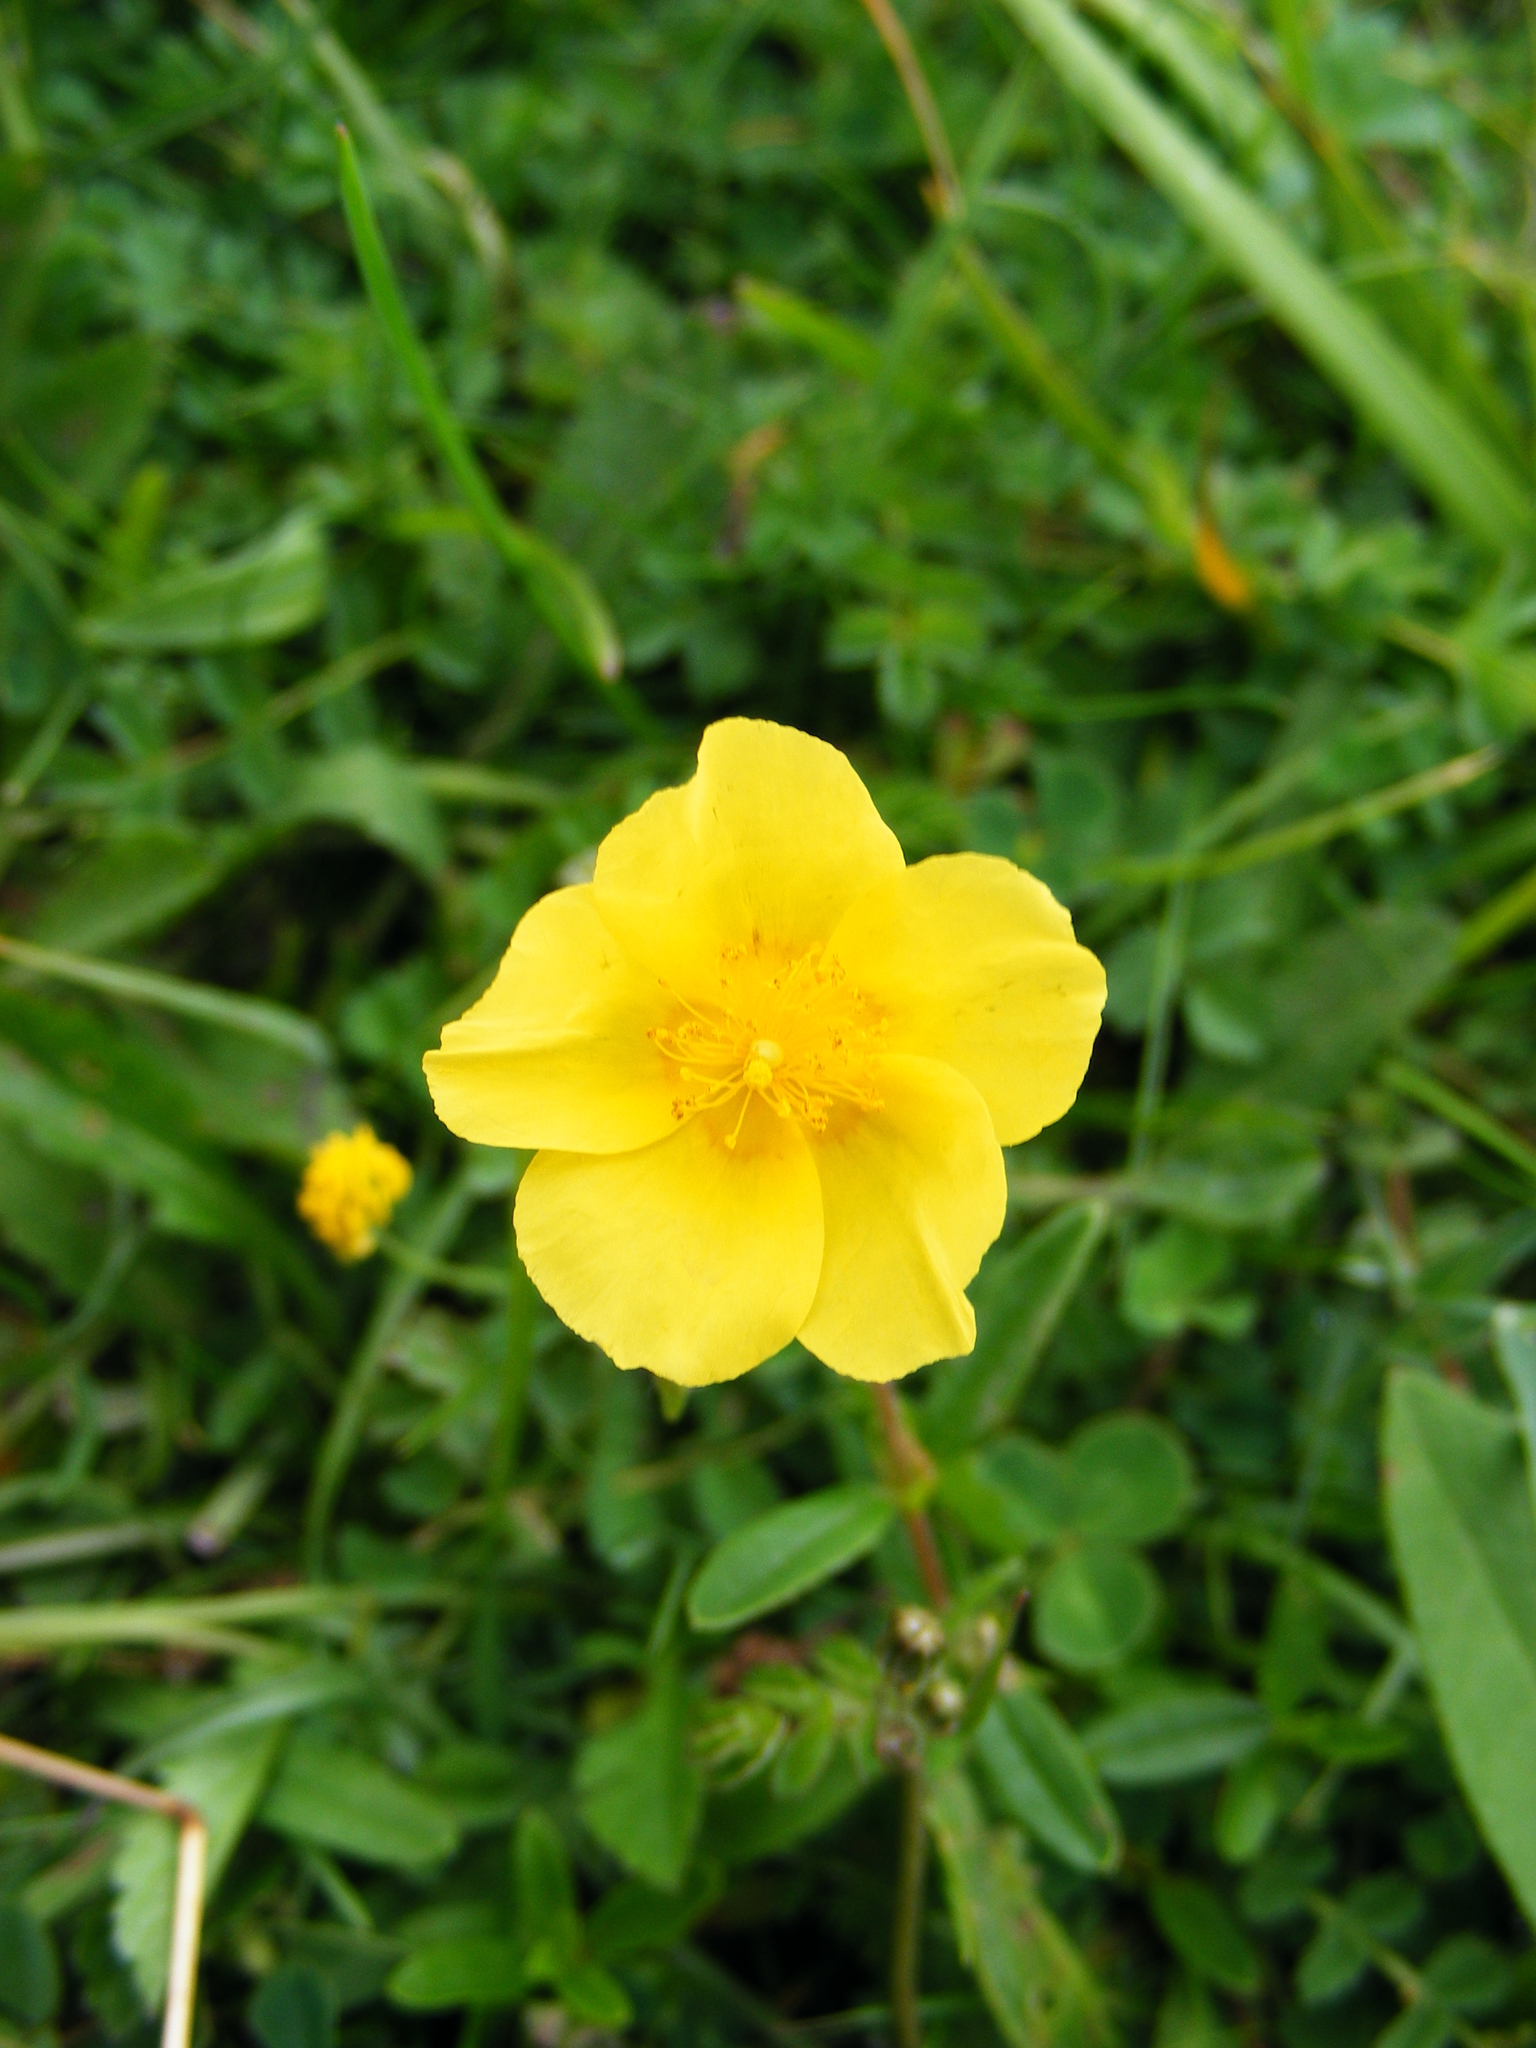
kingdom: Plantae
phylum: Tracheophyta
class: Magnoliopsida
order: Malvales
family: Cistaceae
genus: Helianthemum
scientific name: Helianthemum nummularium
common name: Common rock-rose
